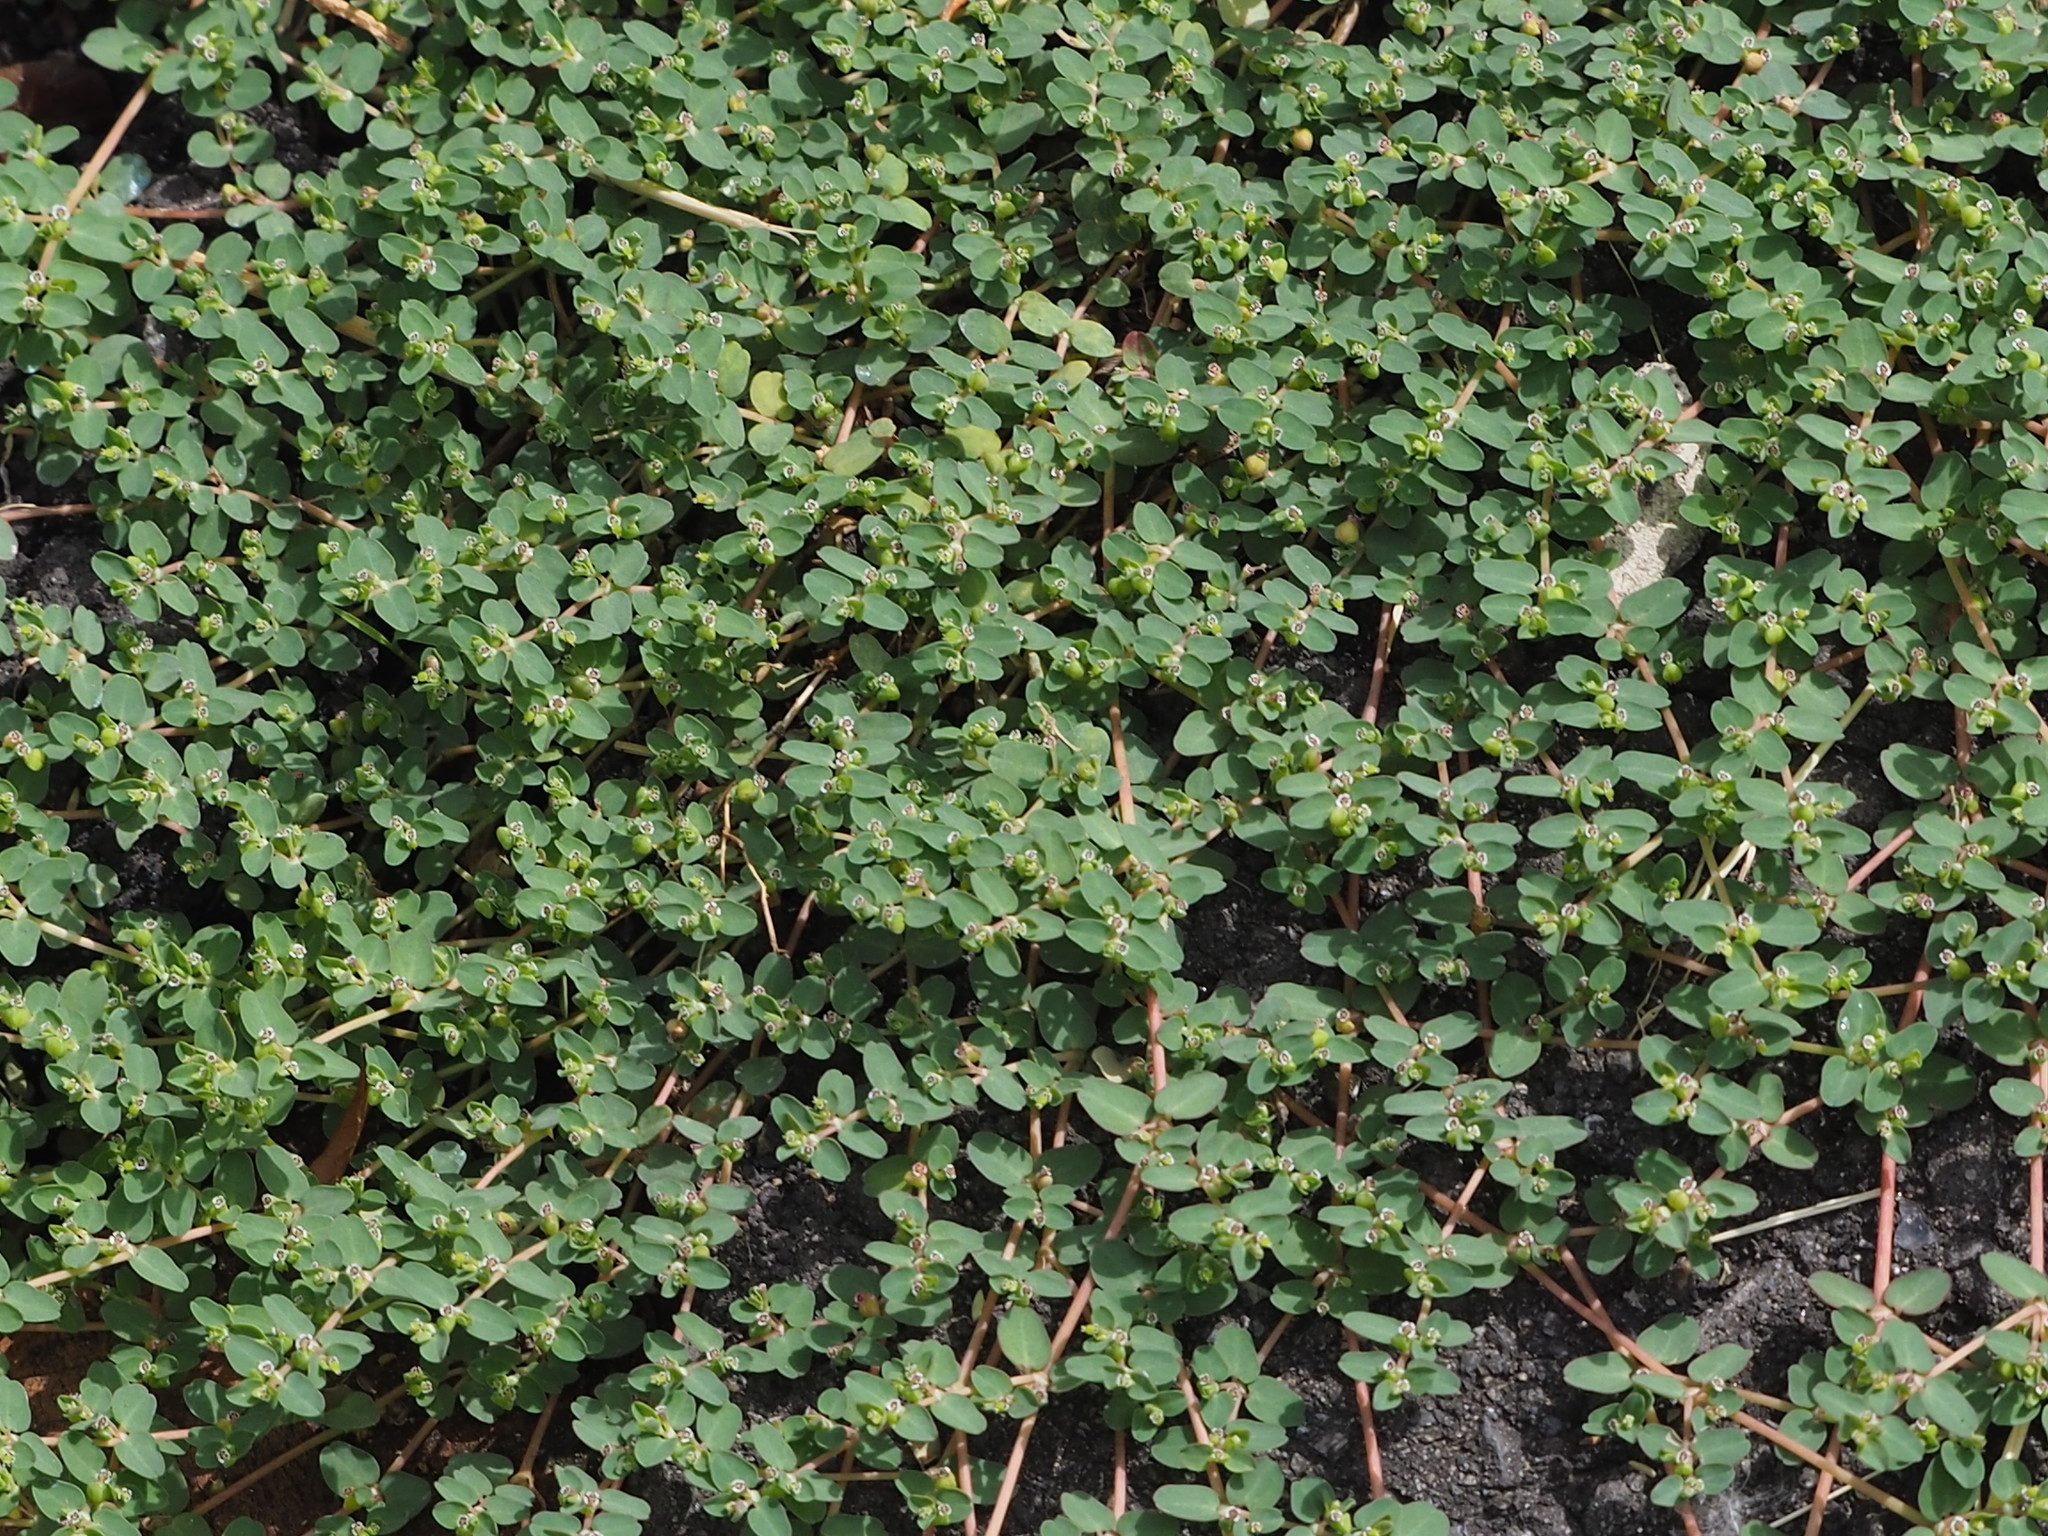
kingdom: Plantae
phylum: Tracheophyta
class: Magnoliopsida
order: Malpighiales
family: Euphorbiaceae
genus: Euphorbia
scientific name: Euphorbia serpens
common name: Matted sandmat
